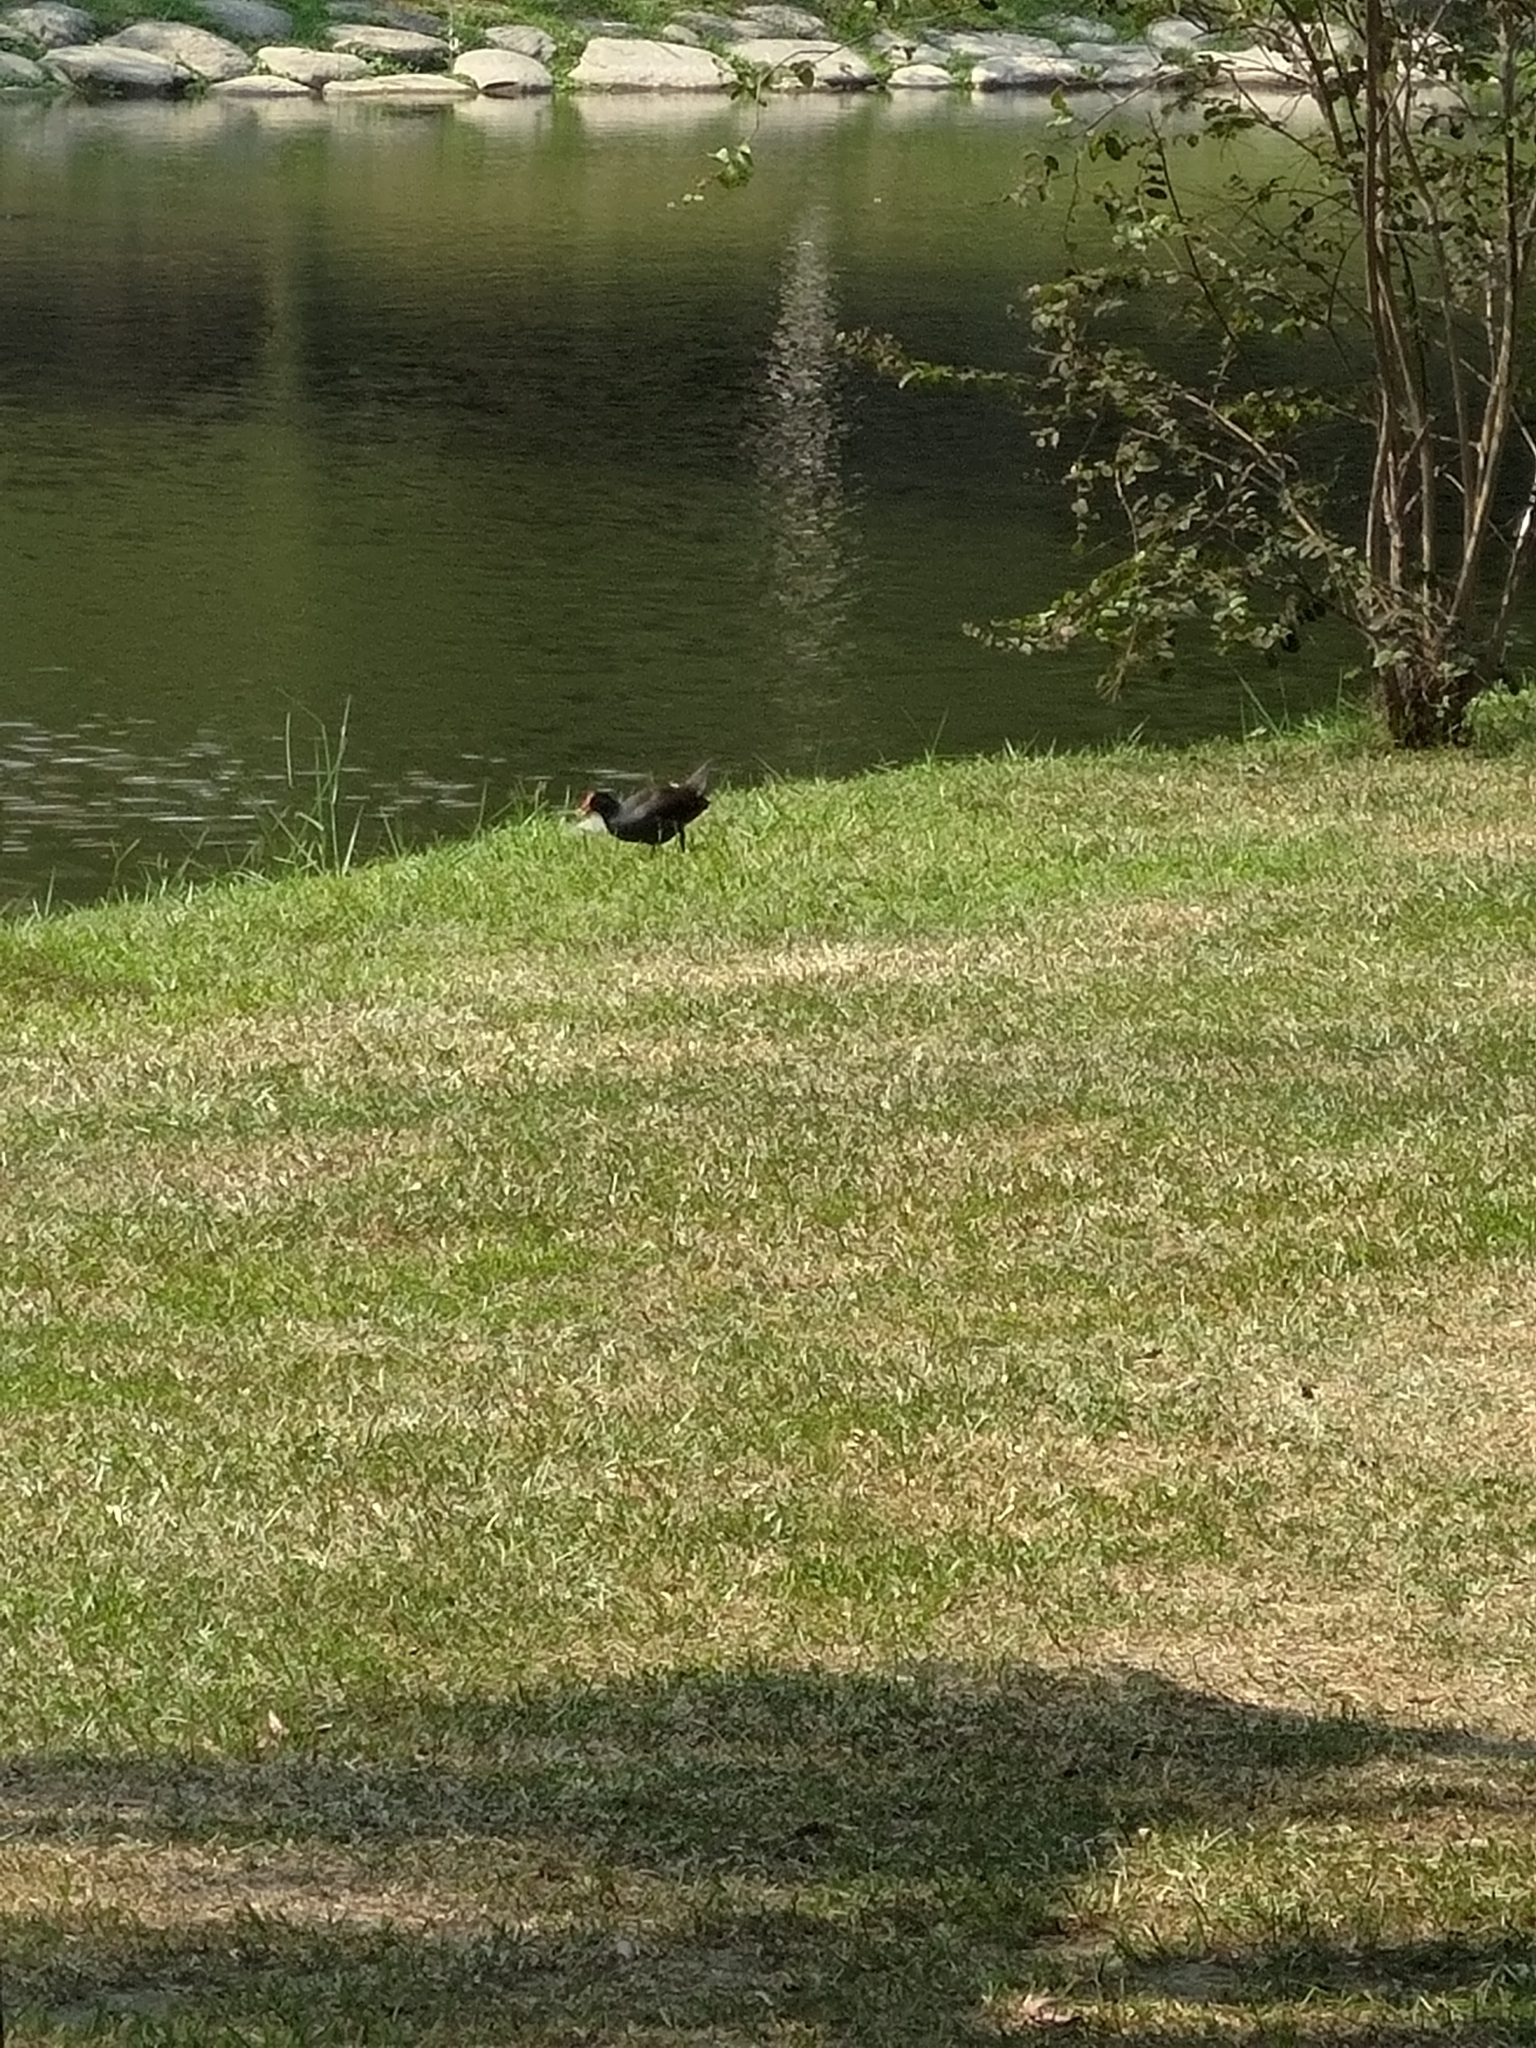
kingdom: Animalia
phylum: Chordata
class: Aves
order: Gruiformes
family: Rallidae
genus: Gallinula
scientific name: Gallinula chloropus
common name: Common moorhen
